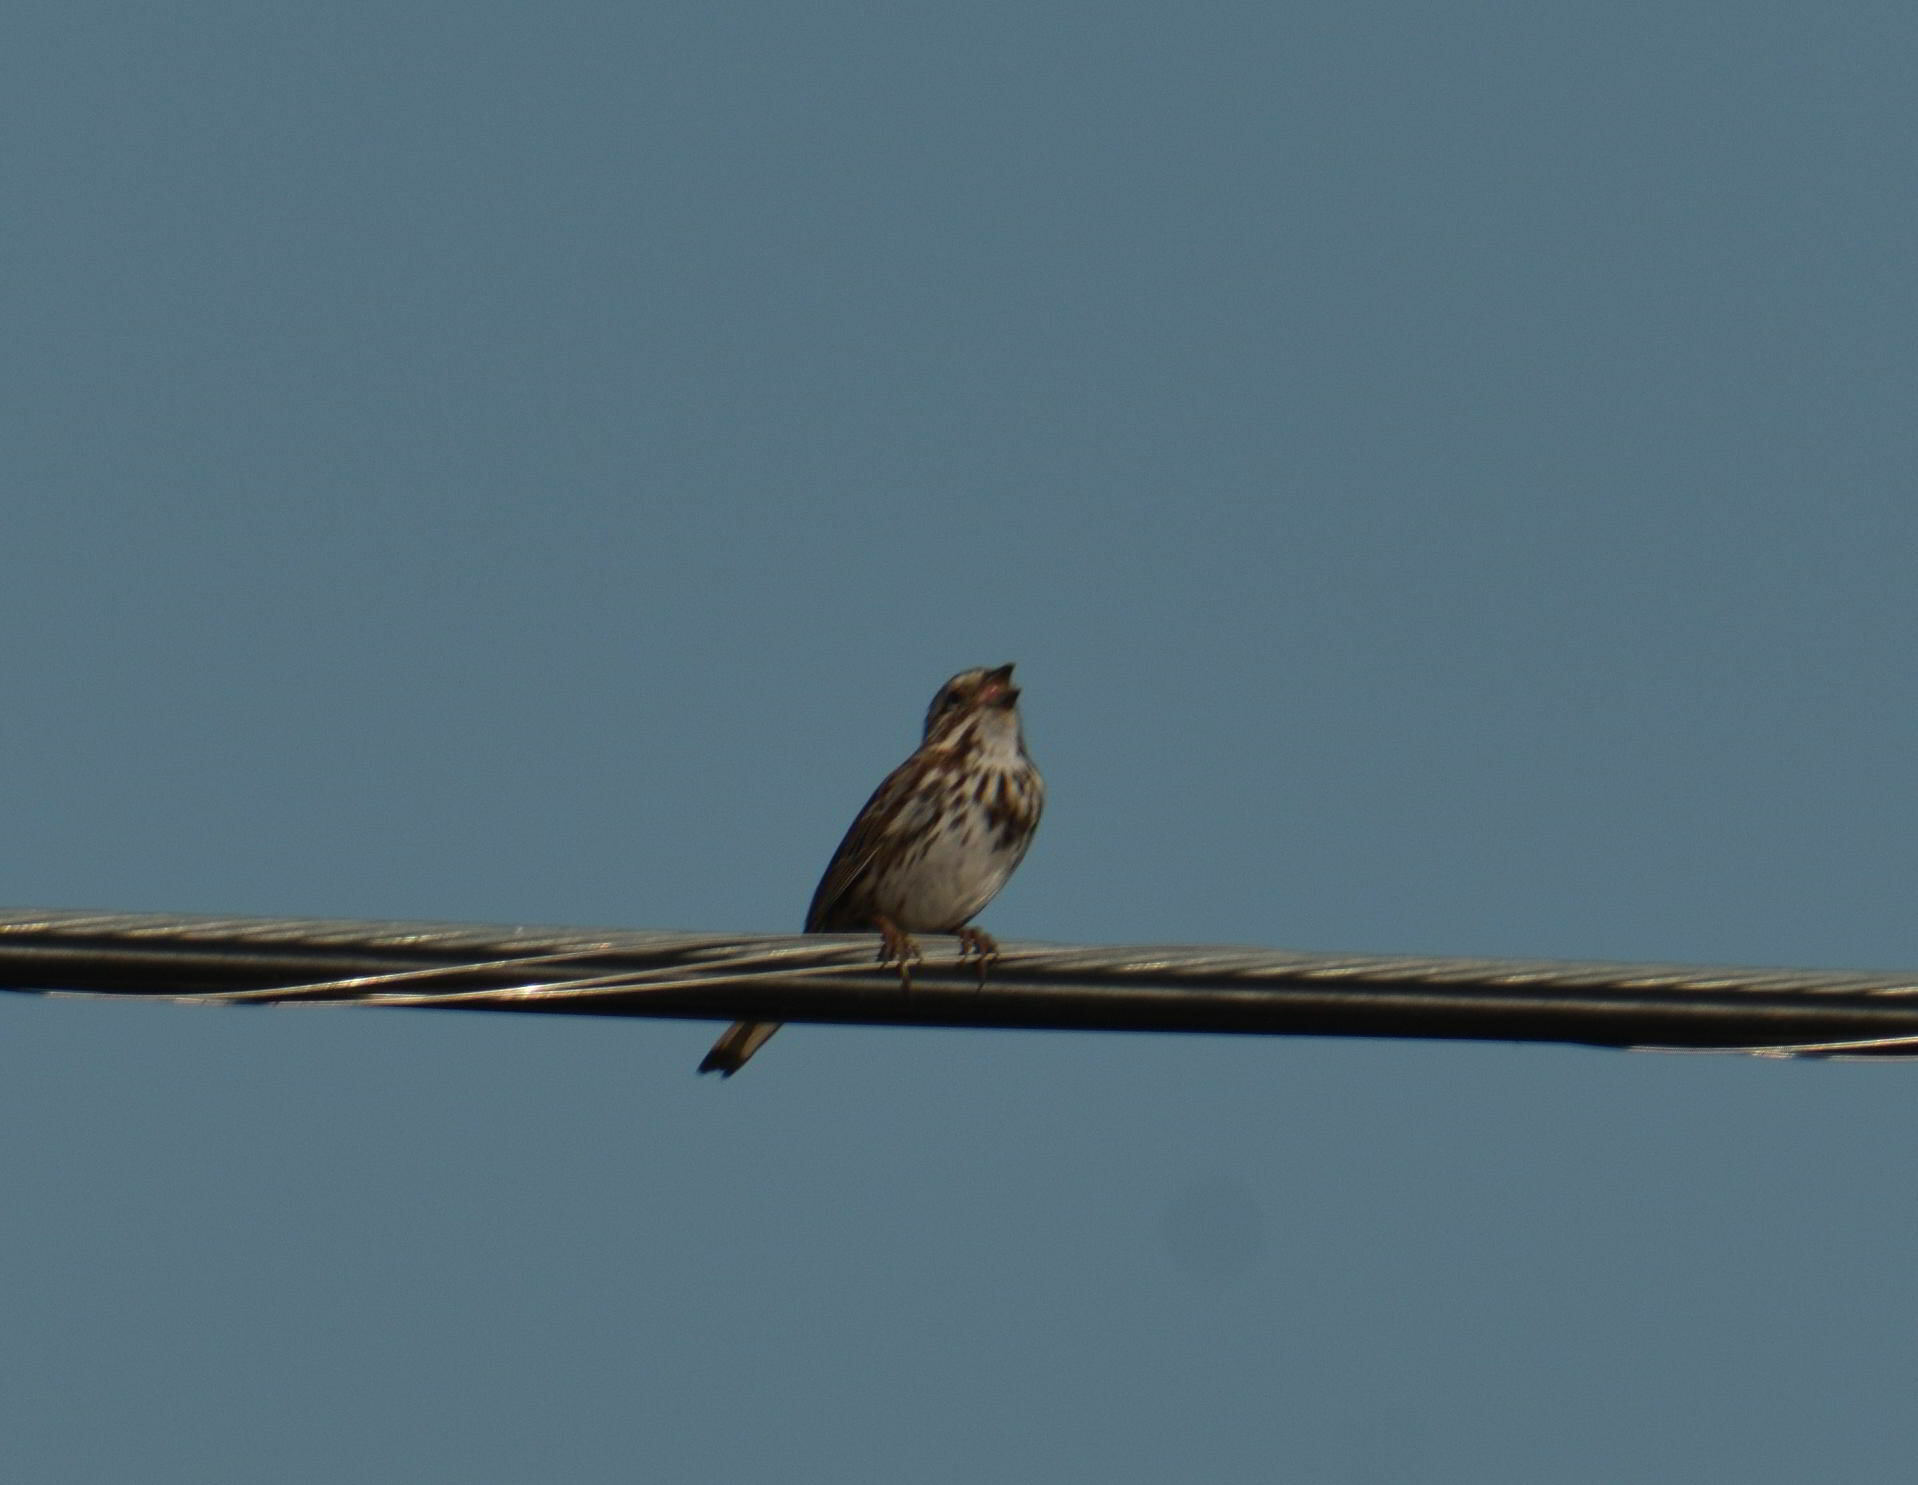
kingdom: Animalia
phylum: Chordata
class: Aves
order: Passeriformes
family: Passerellidae
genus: Melospiza
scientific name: Melospiza melodia
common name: Song sparrow
